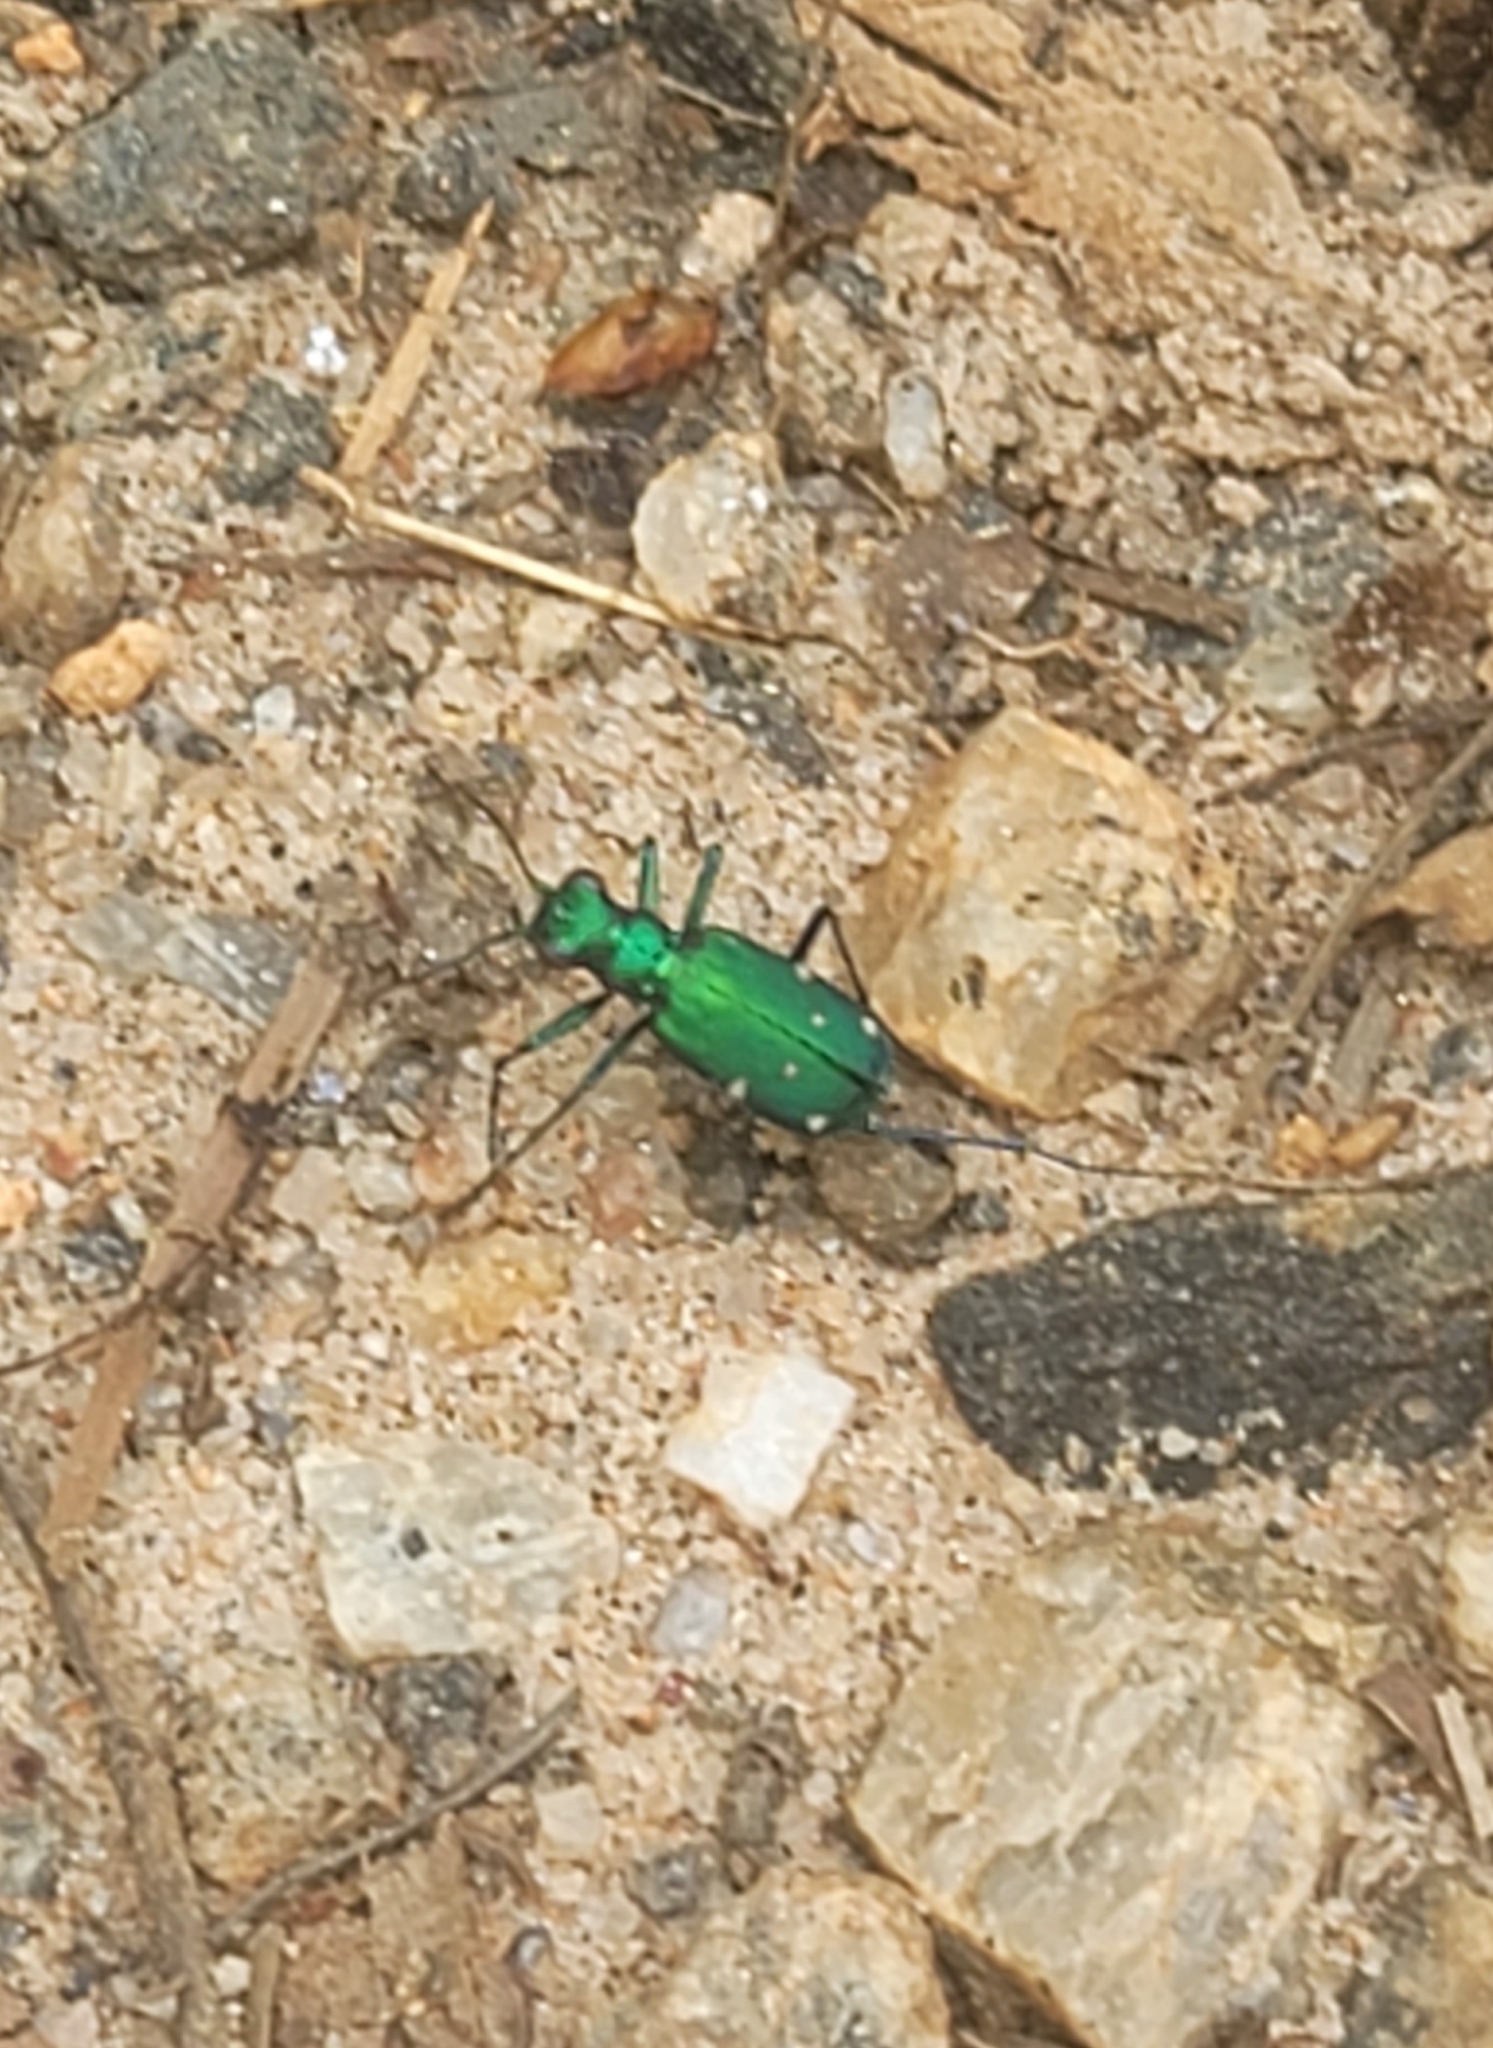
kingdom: Animalia
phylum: Arthropoda
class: Insecta
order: Coleoptera
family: Carabidae
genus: Cicindela
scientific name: Cicindela sexguttata
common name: Six-spotted tiger beetle
